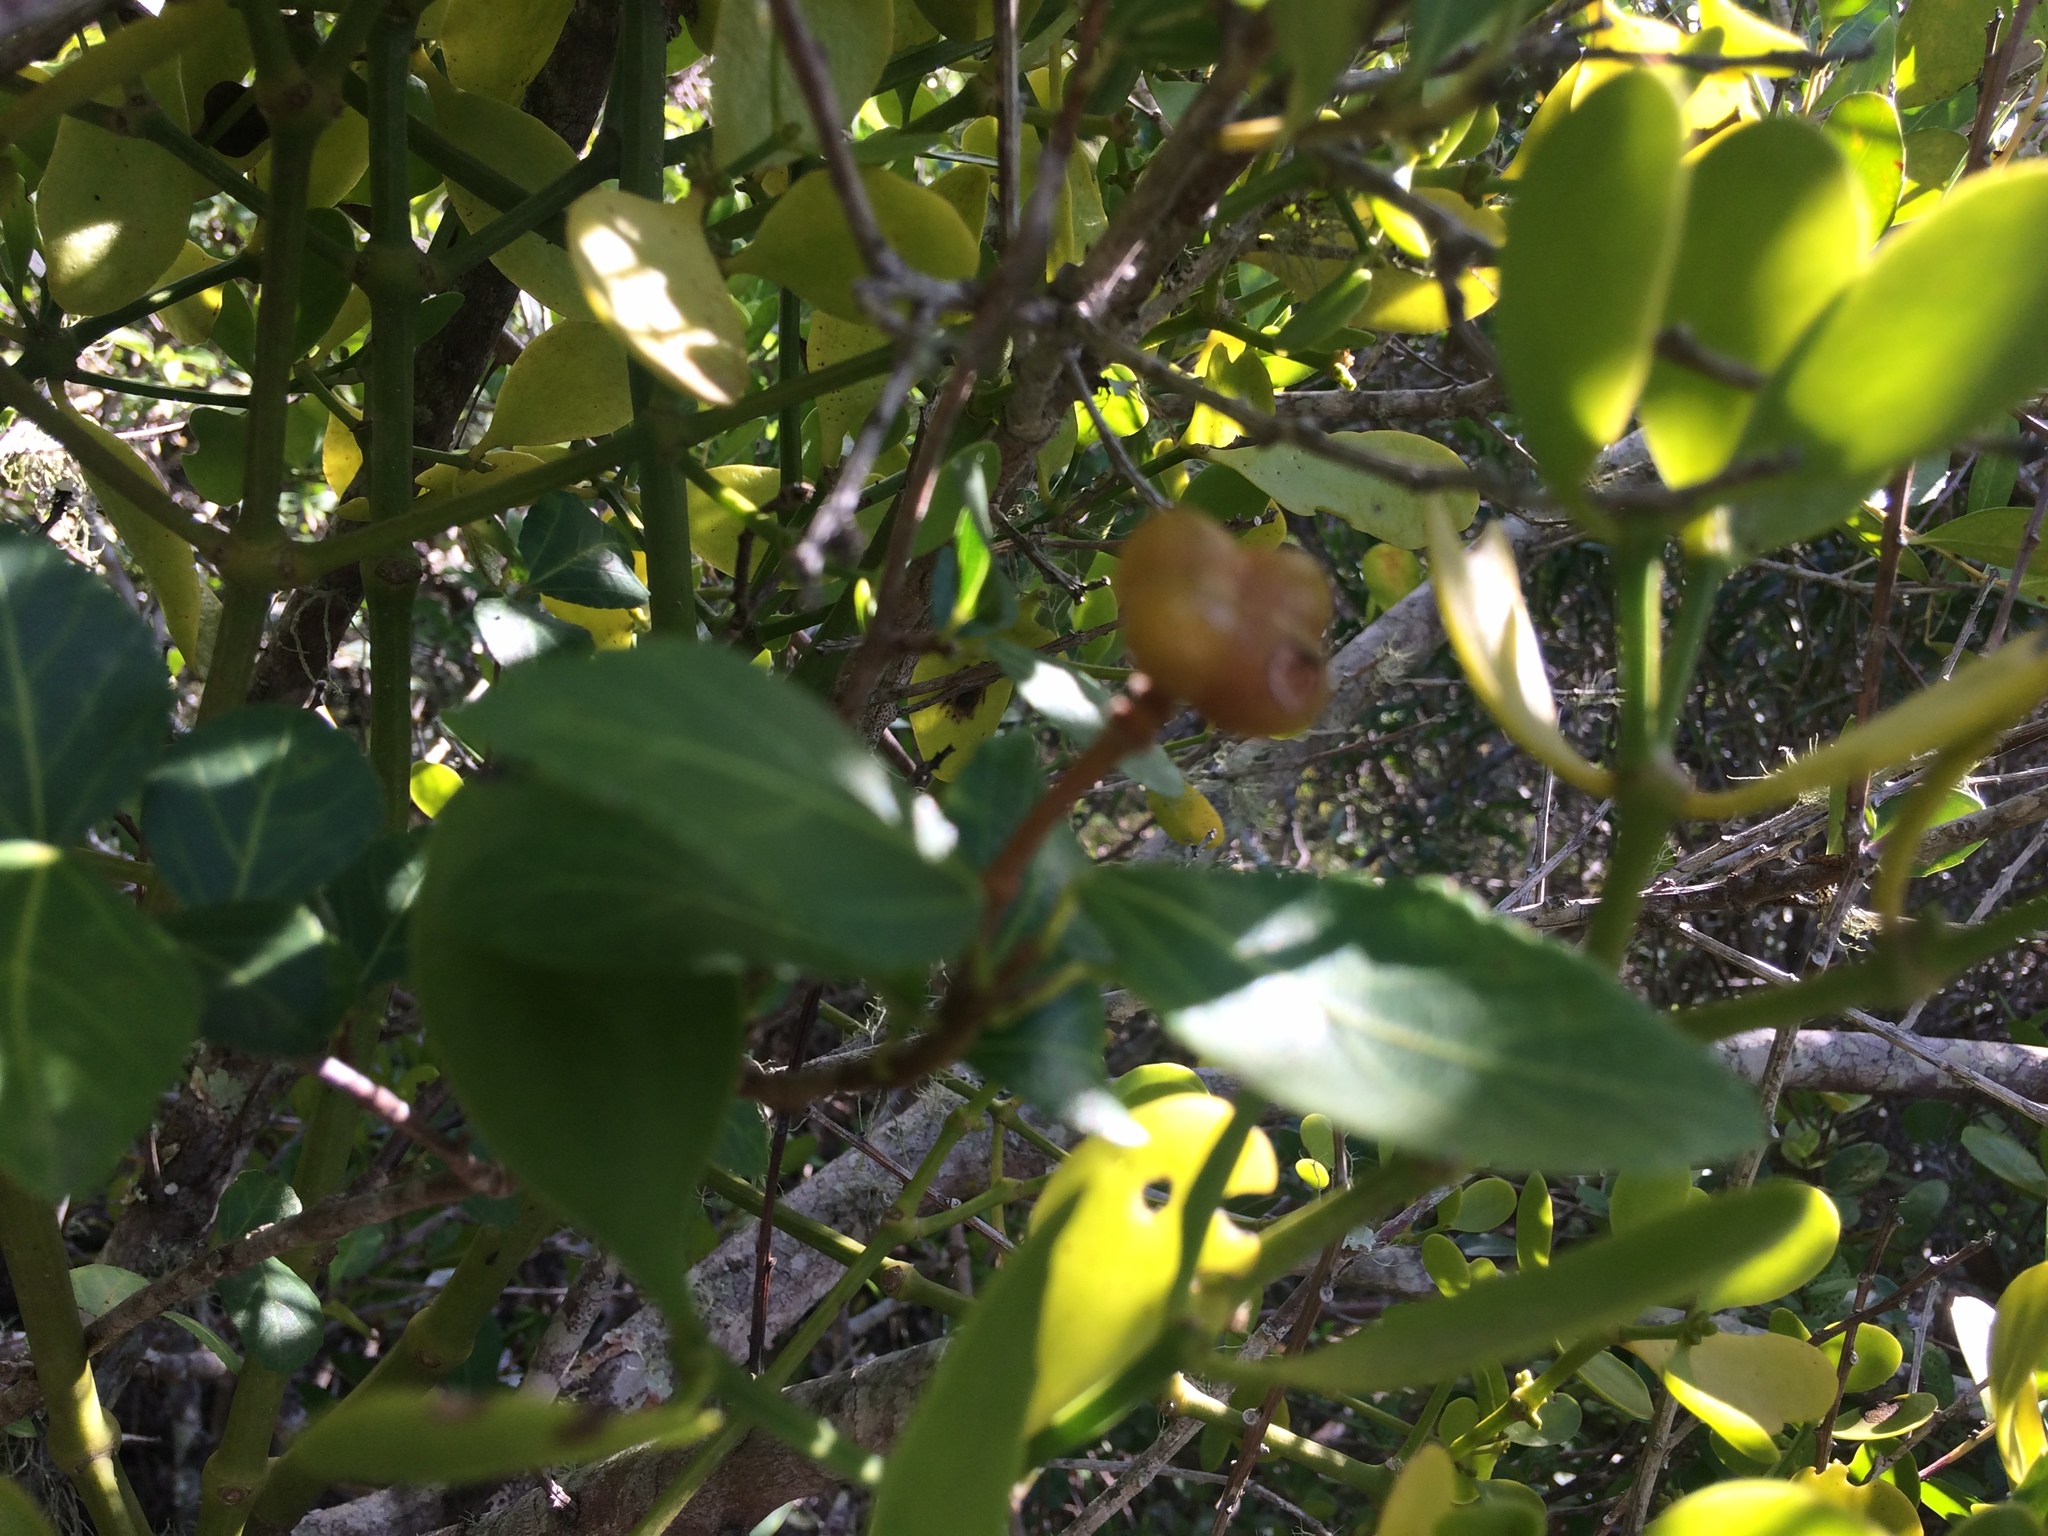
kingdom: Plantae
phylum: Tracheophyta
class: Magnoliopsida
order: Malvales
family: Malvaceae
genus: Grewia
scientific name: Grewia occidentalis
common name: Crossberry
